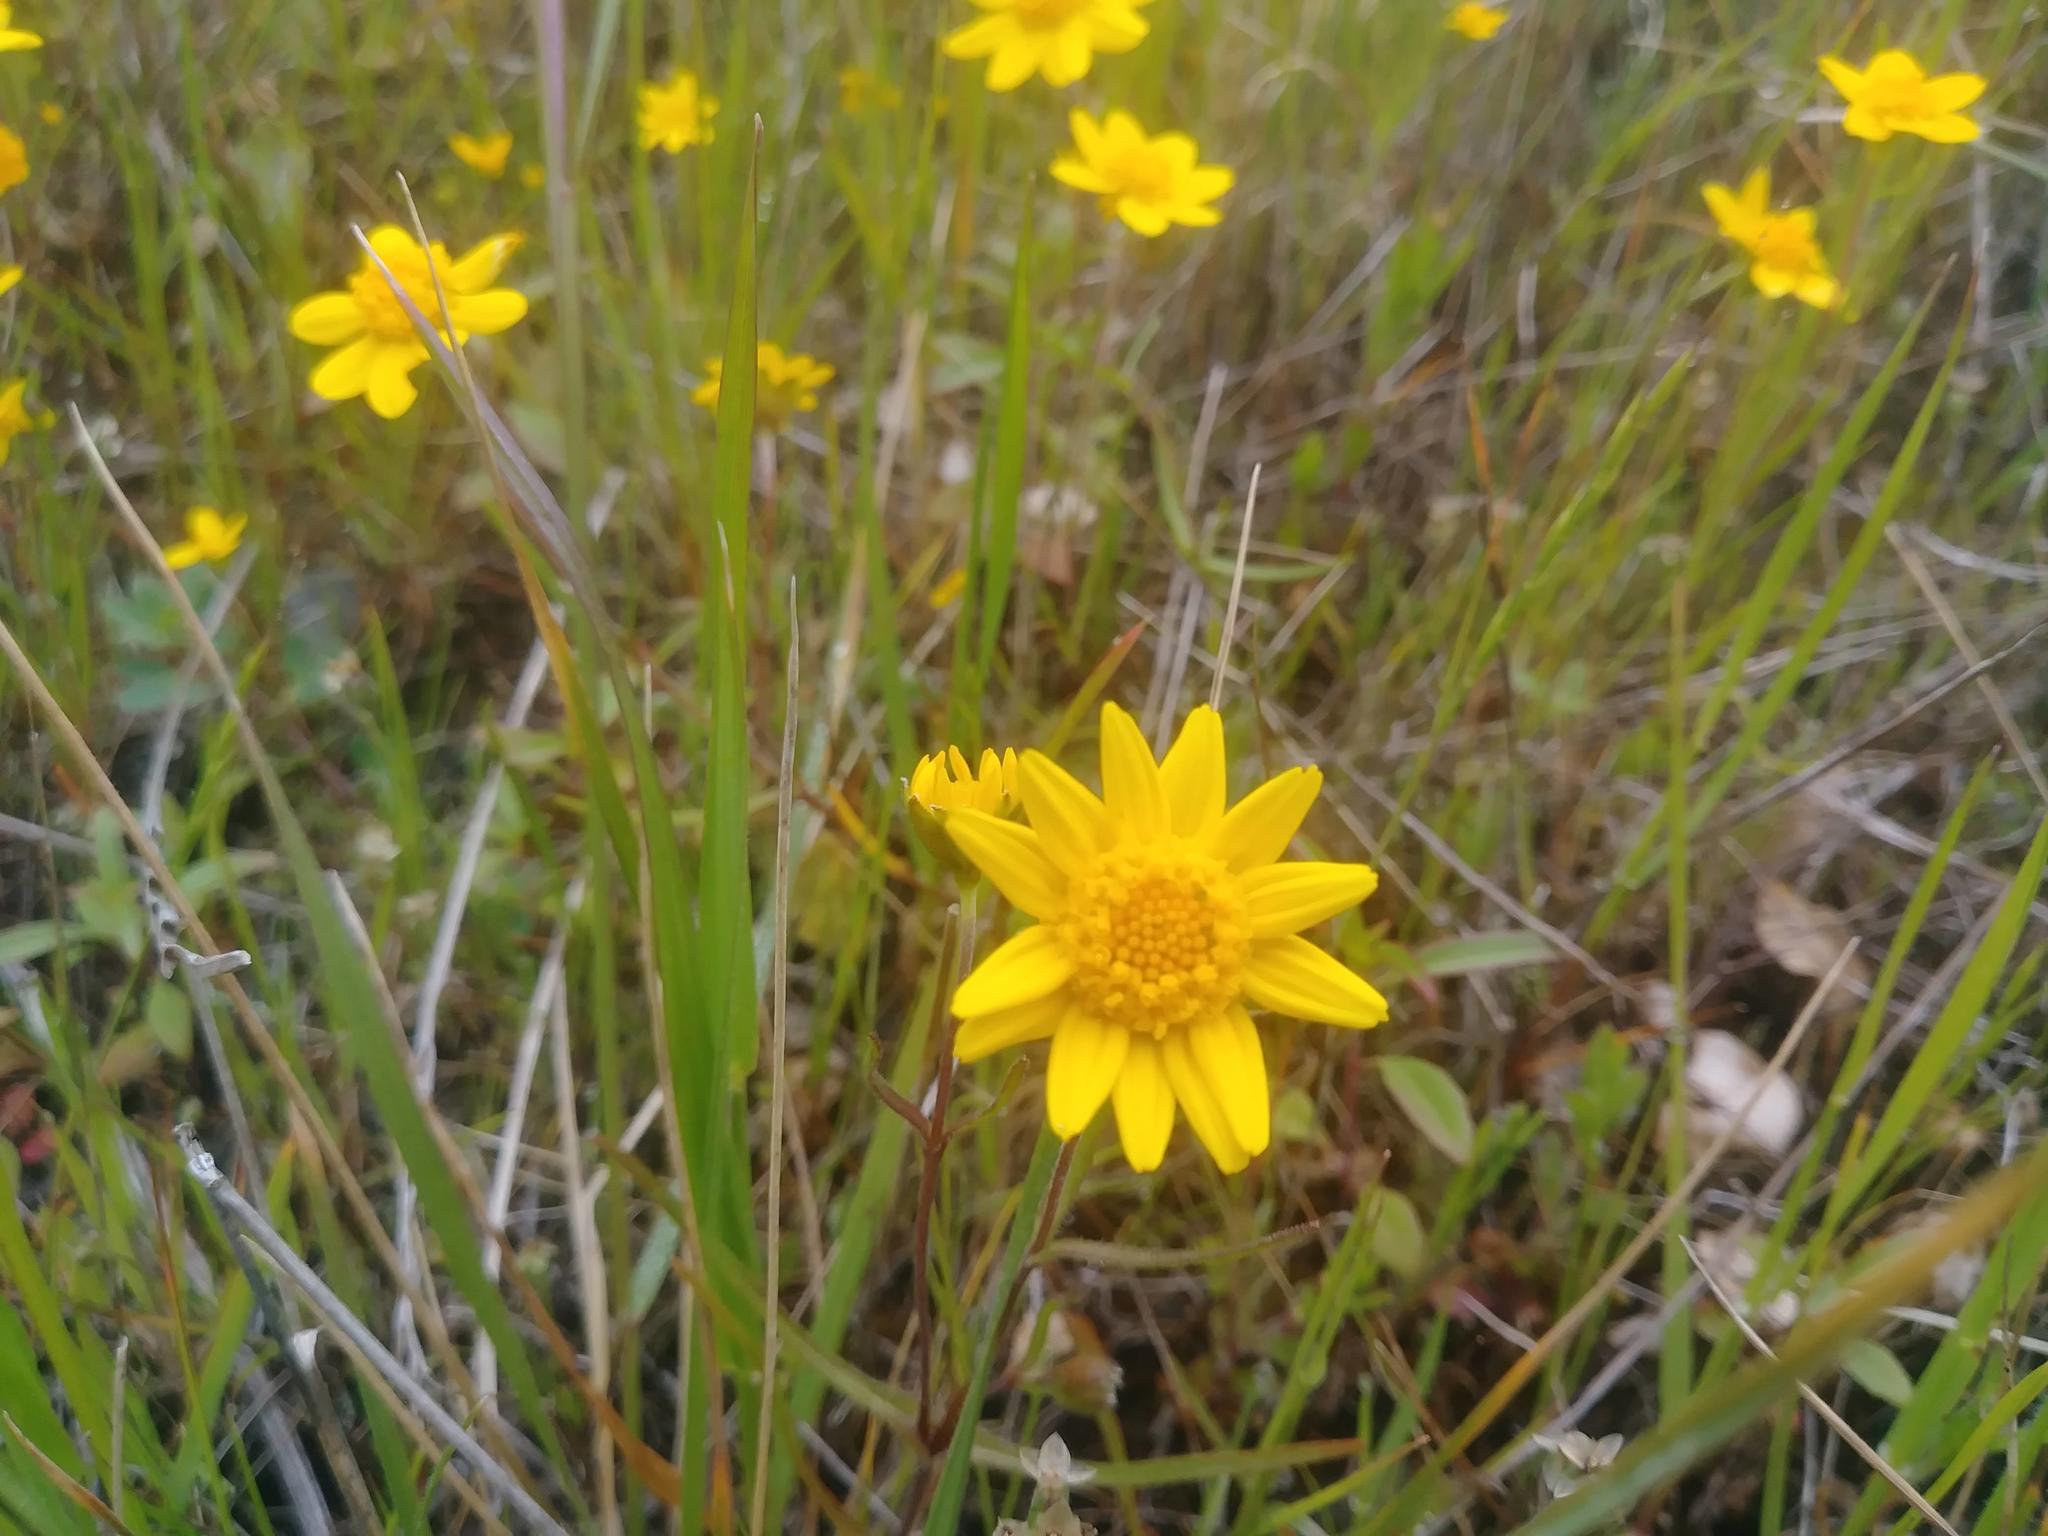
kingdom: Plantae
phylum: Tracheophyta
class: Magnoliopsida
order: Asterales
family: Asteraceae
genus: Lasthenia
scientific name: Lasthenia californica
